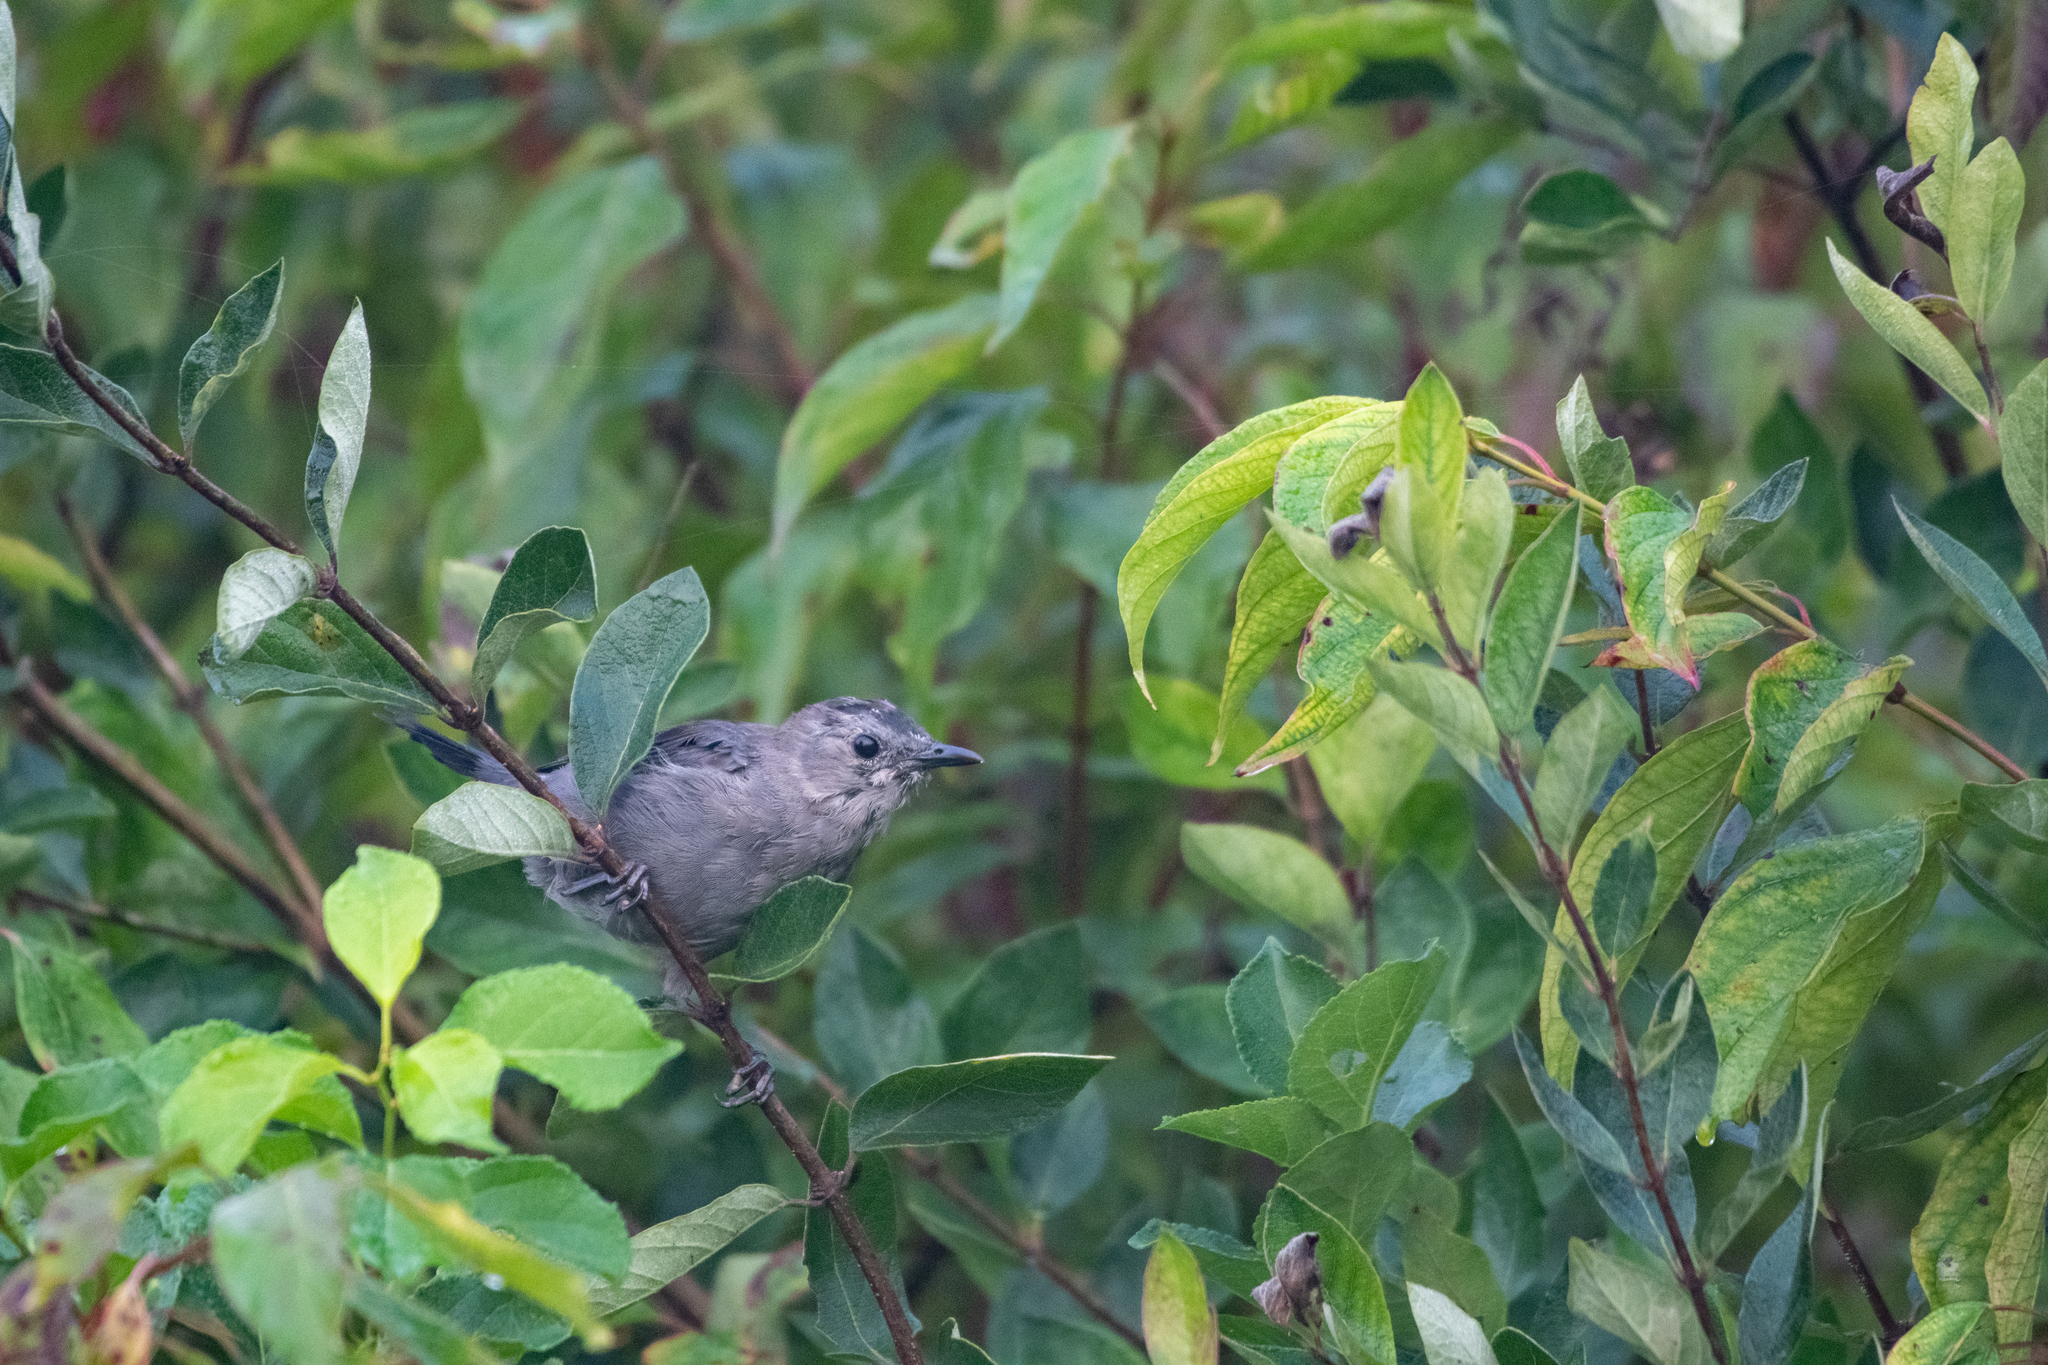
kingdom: Animalia
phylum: Chordata
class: Aves
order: Passeriformes
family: Mimidae
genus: Dumetella
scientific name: Dumetella carolinensis
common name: Gray catbird
